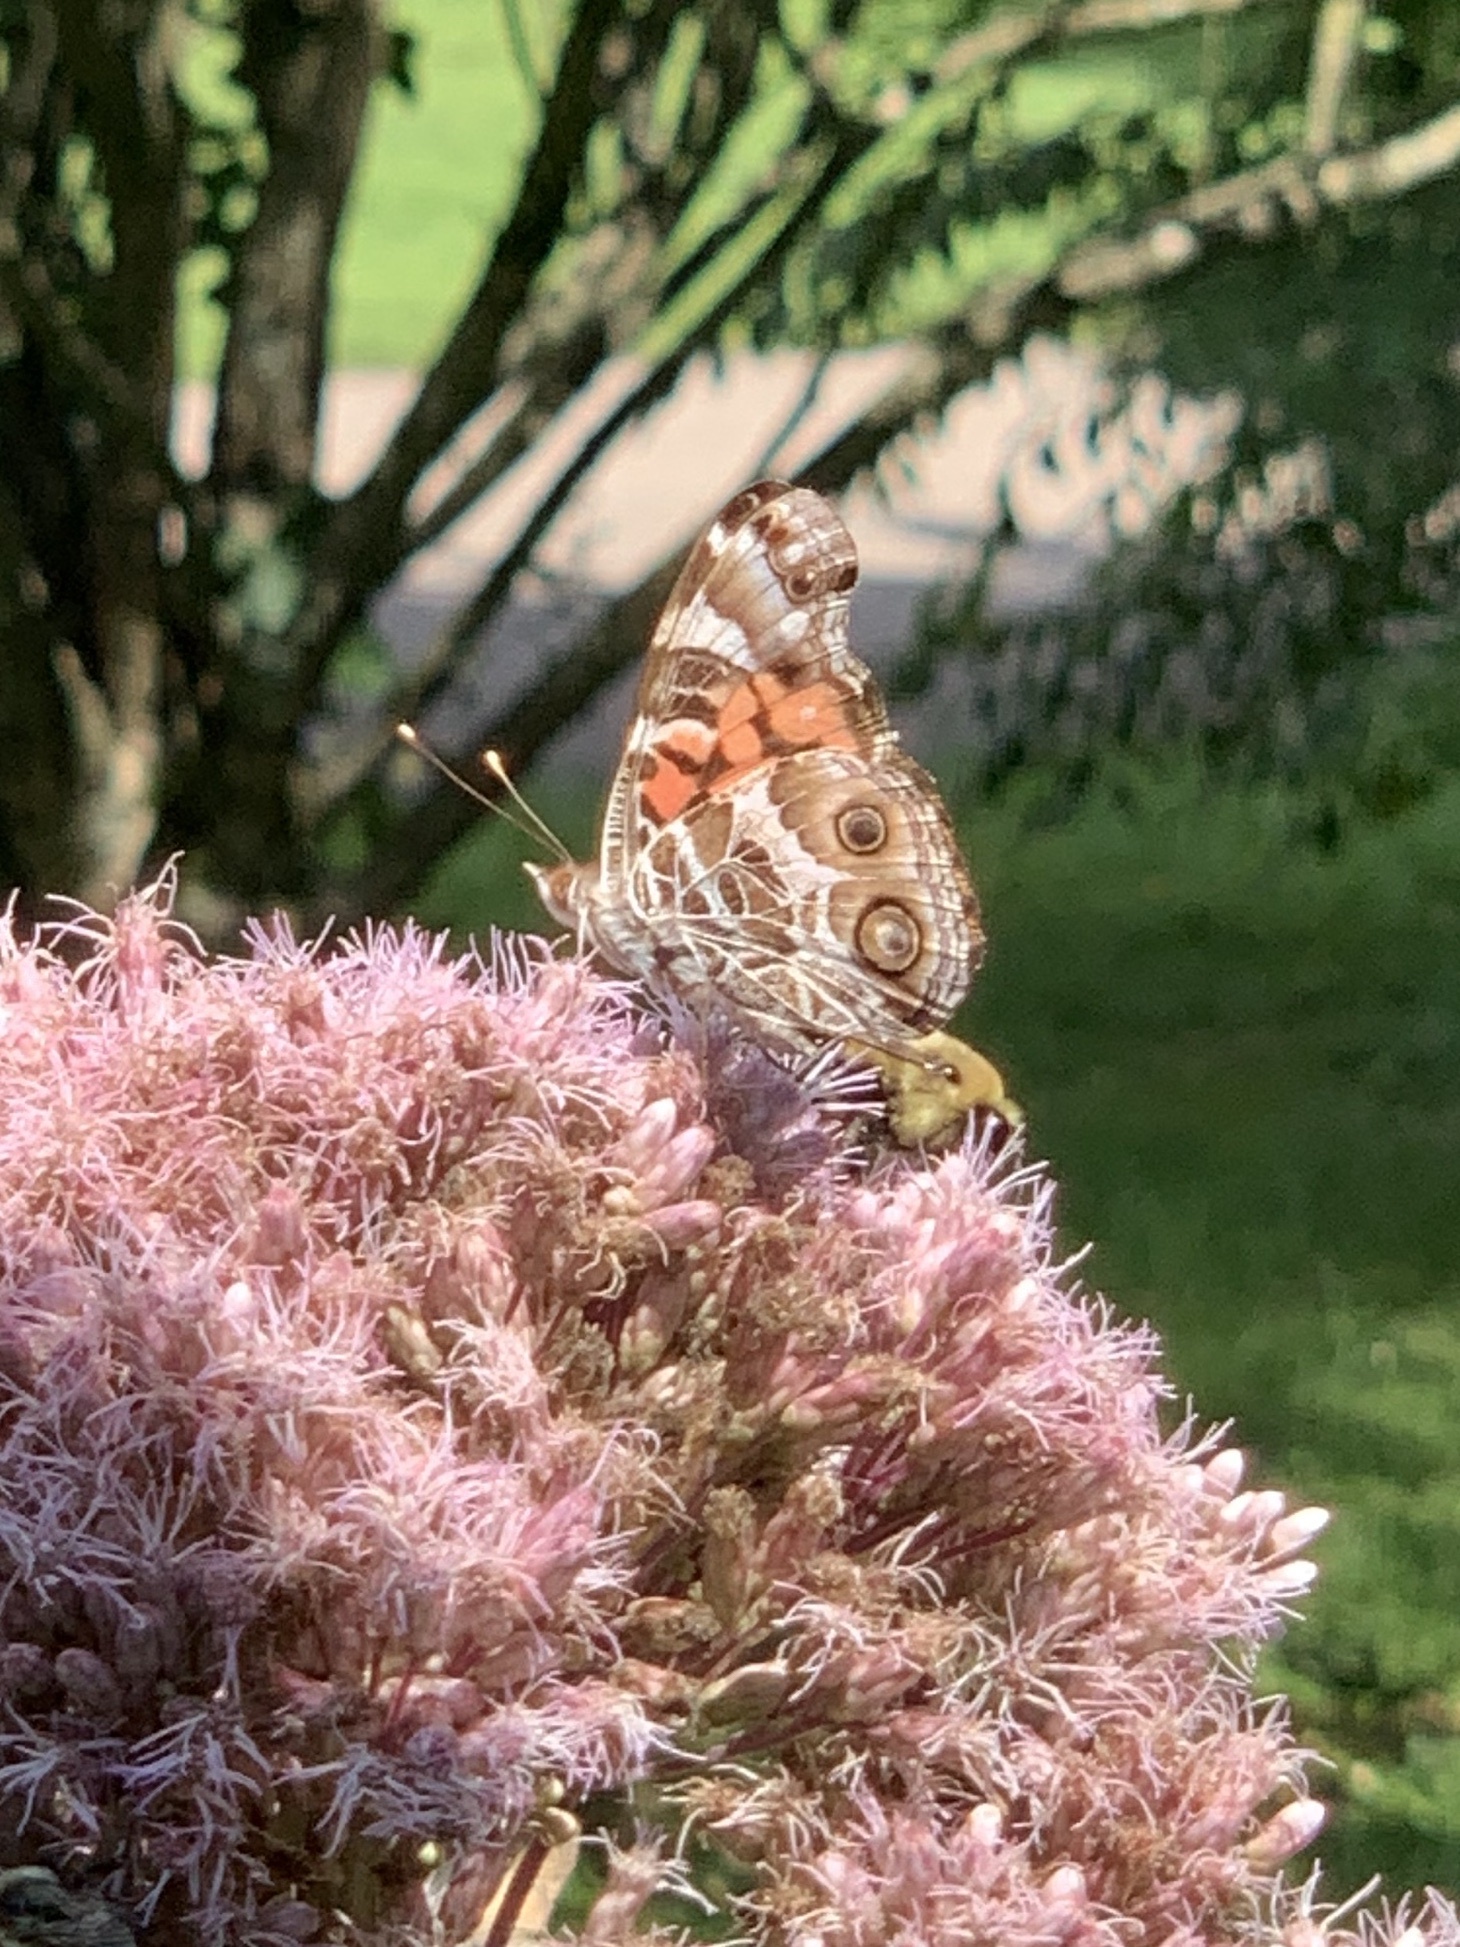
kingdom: Animalia
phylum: Arthropoda
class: Insecta
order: Lepidoptera
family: Nymphalidae
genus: Vanessa
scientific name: Vanessa virginiensis
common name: American lady
